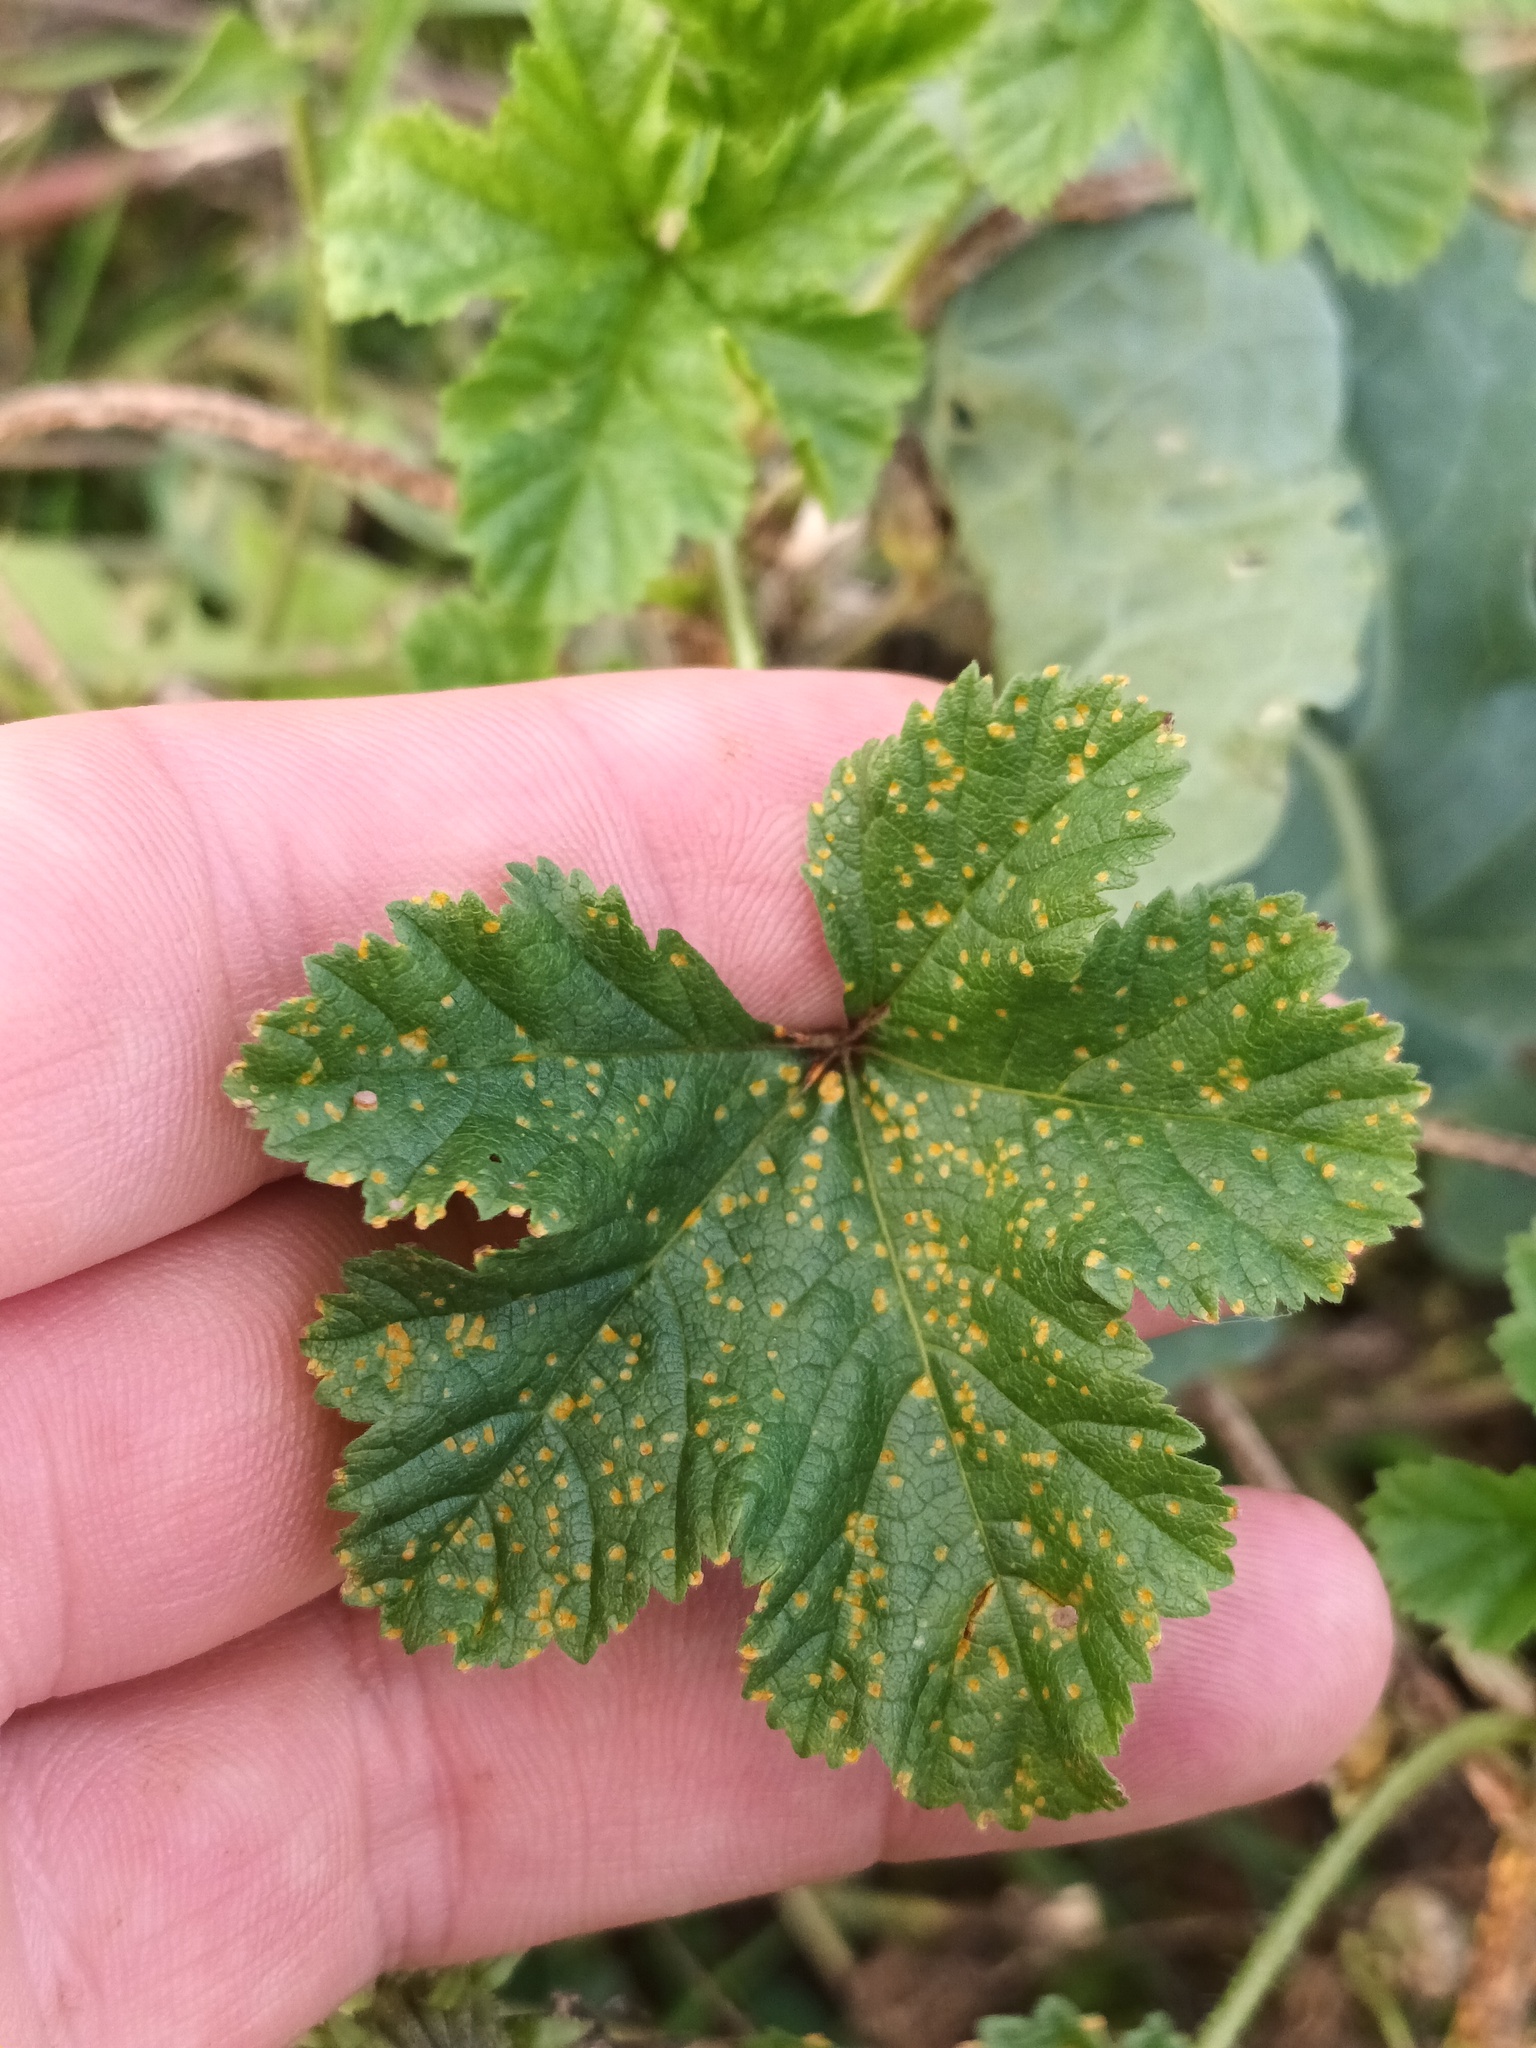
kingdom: Fungi
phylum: Basidiomycota
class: Pucciniomycetes
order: Pucciniales
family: Pucciniaceae
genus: Puccinia
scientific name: Puccinia malvacearum
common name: Hollyhock rust
